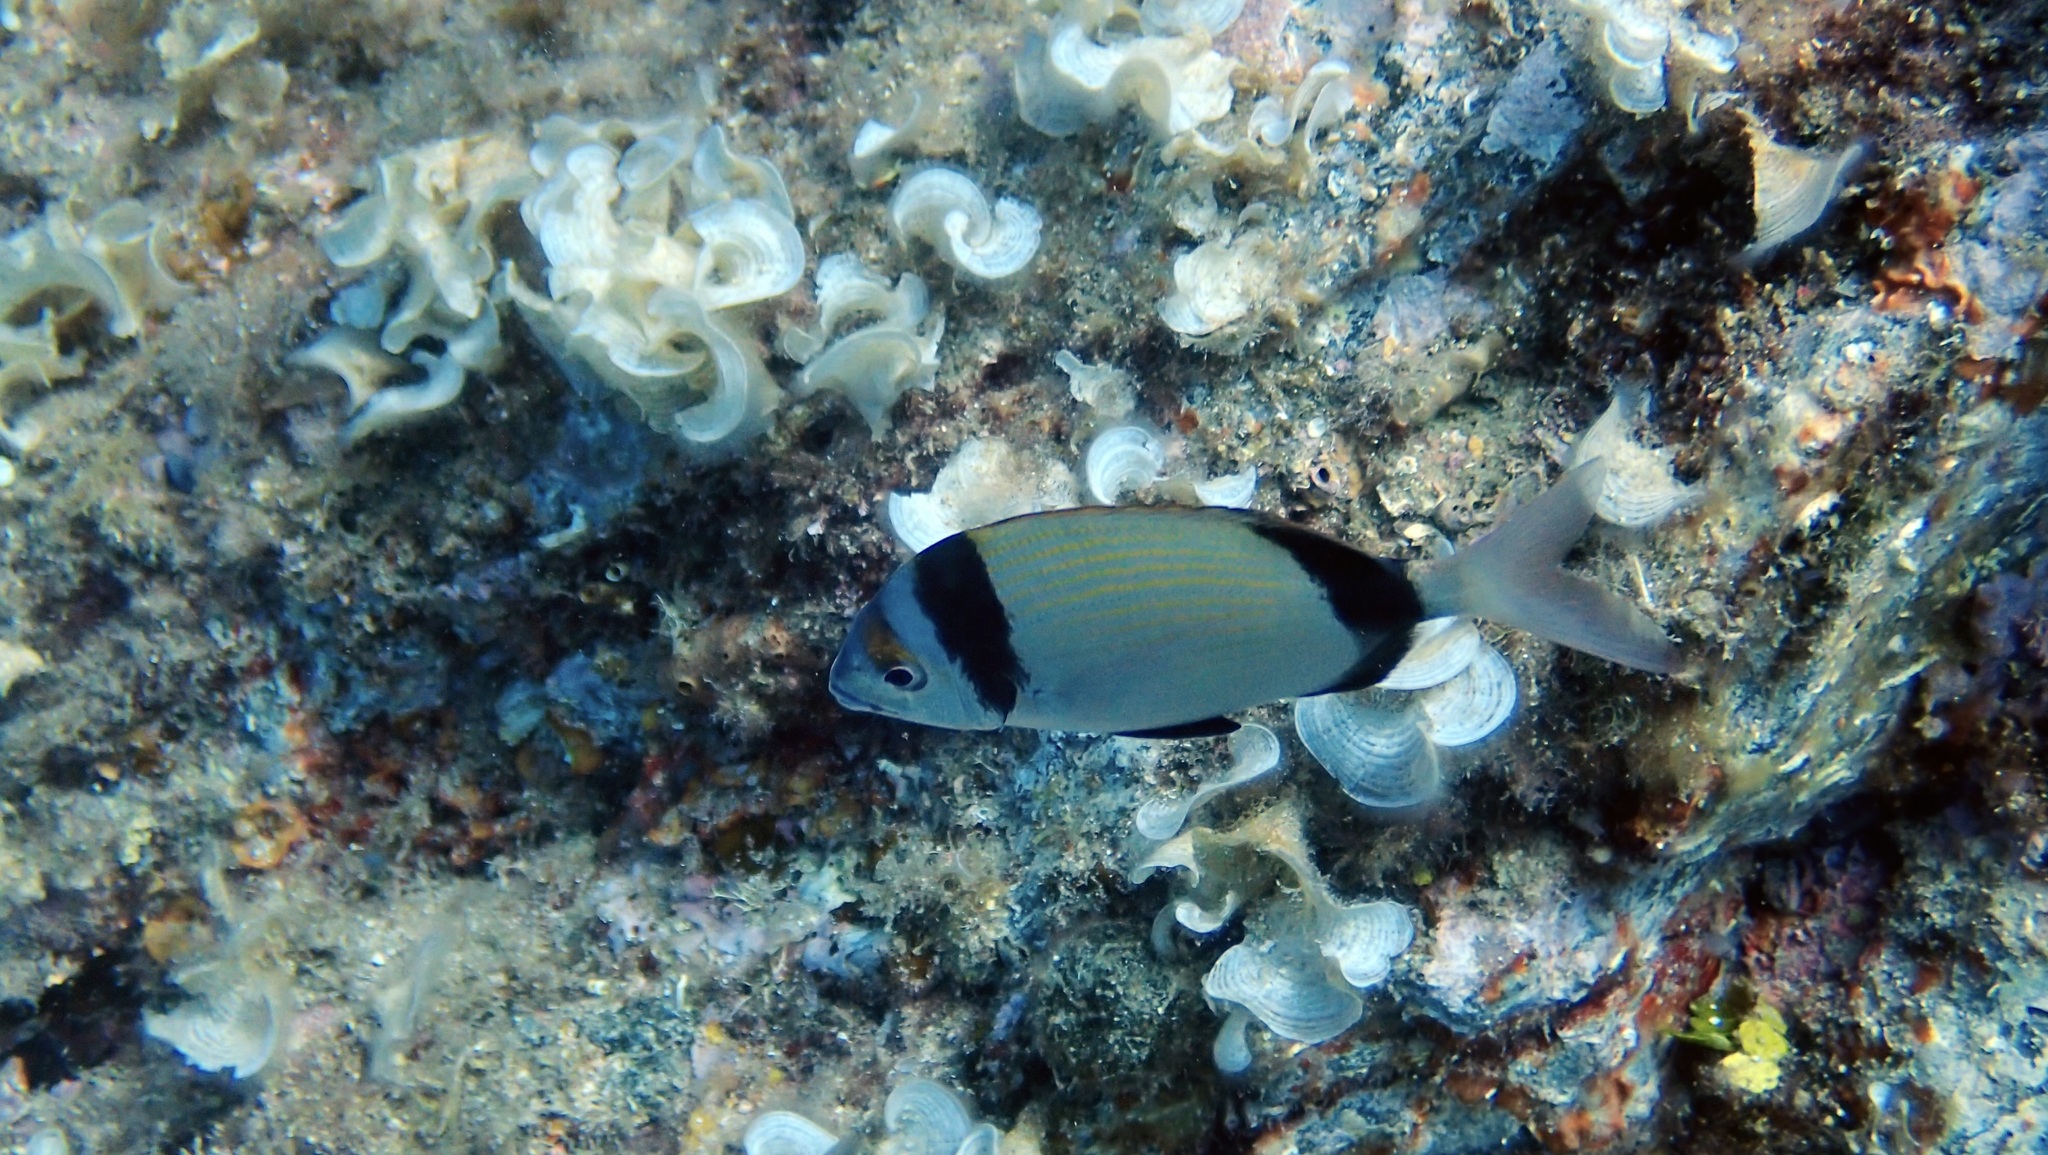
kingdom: Animalia
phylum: Chordata
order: Perciformes
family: Sparidae
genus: Diplodus
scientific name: Diplodus vulgaris
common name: Common two-banded seabream
